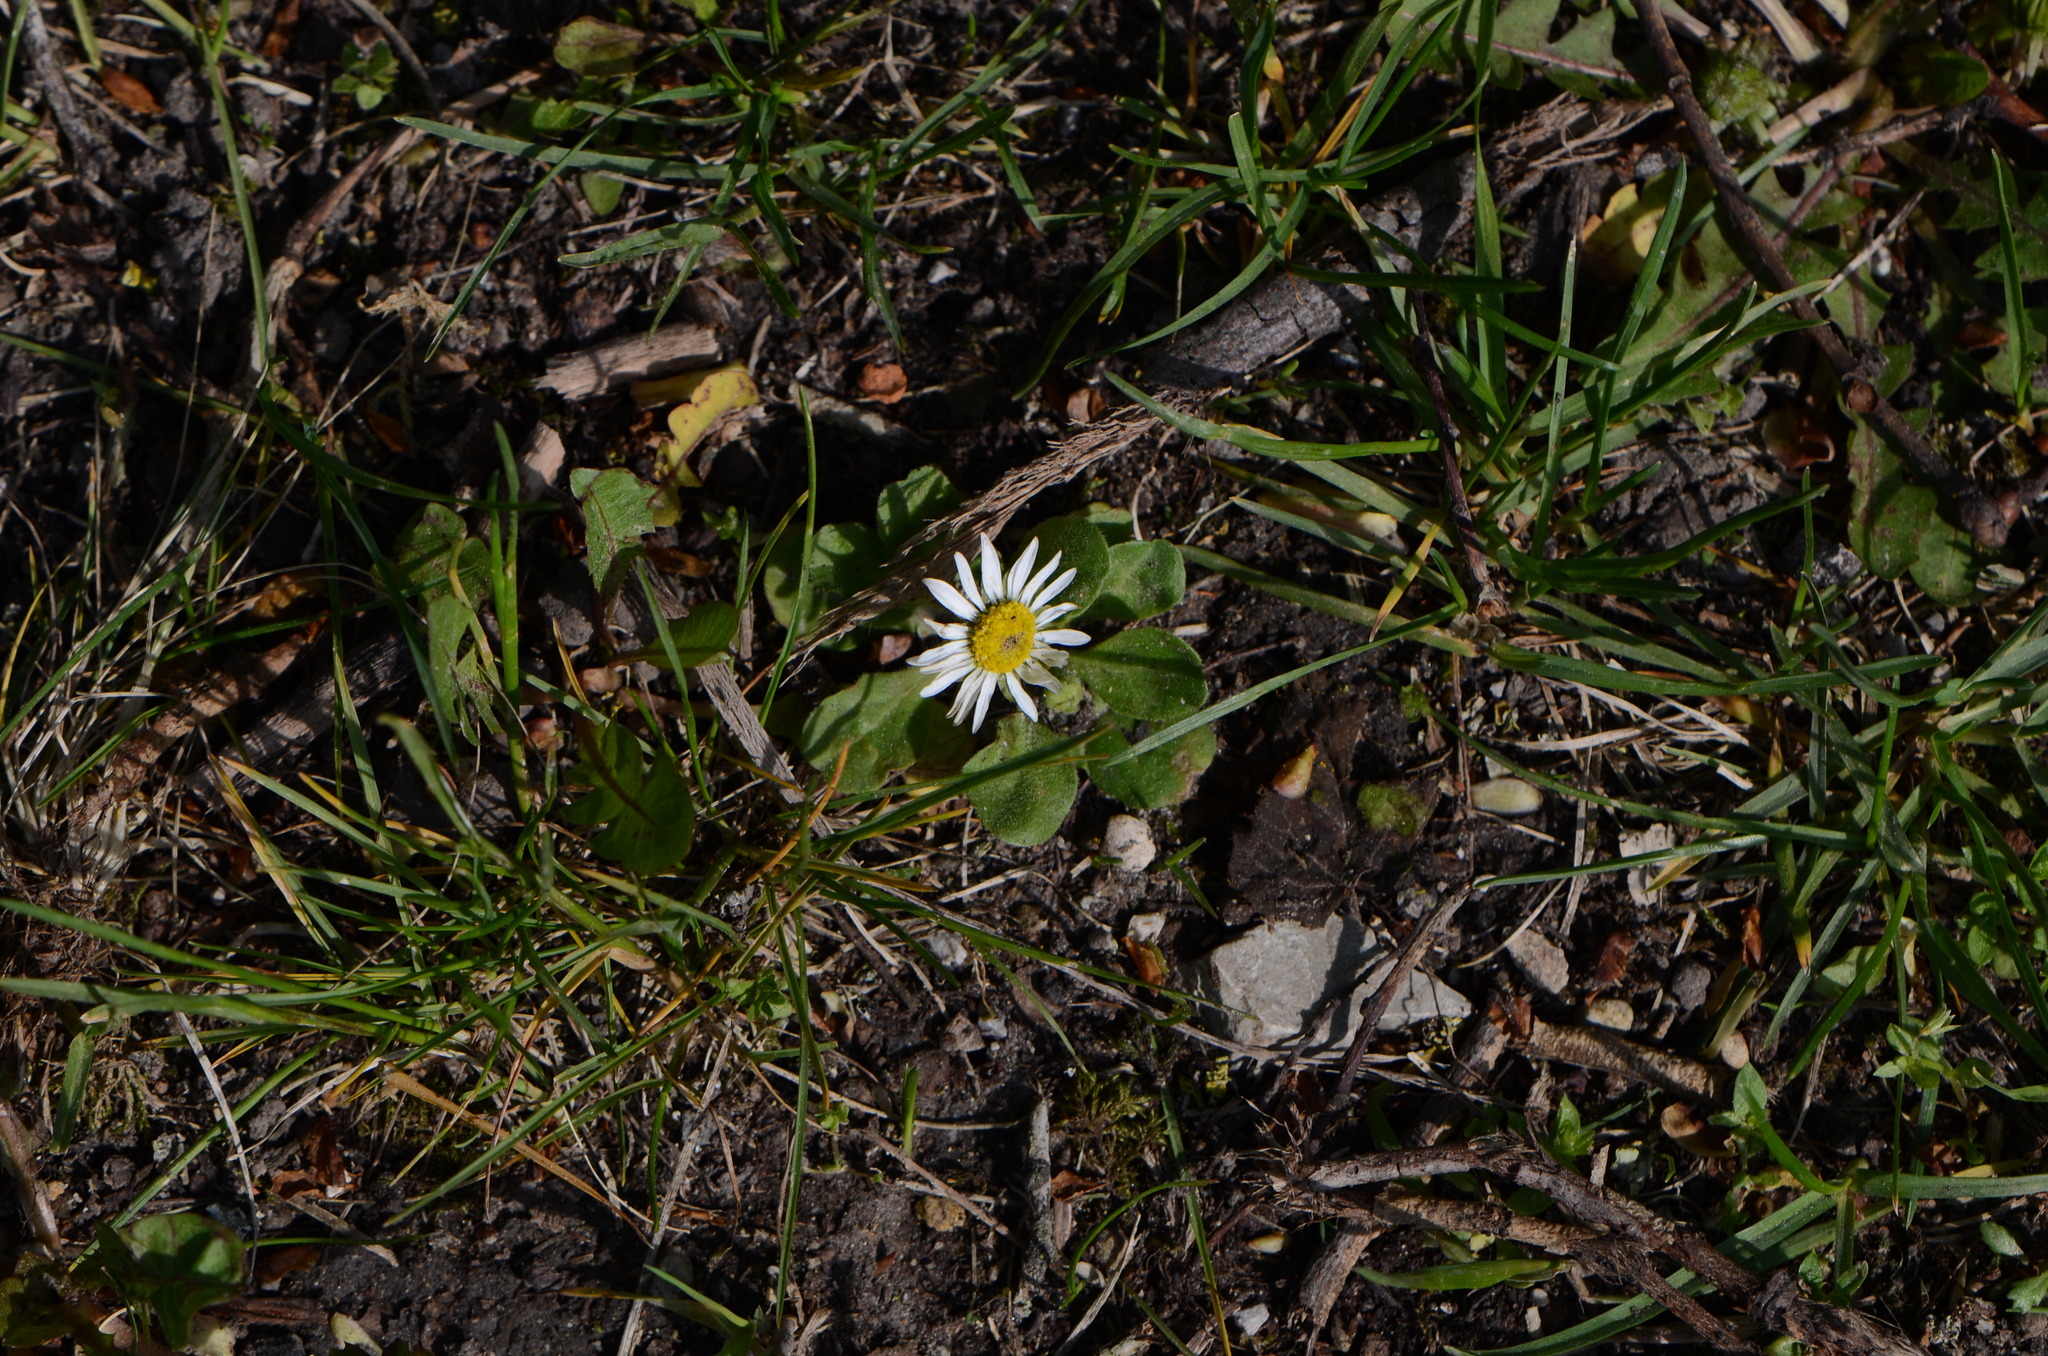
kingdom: Plantae
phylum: Tracheophyta
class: Magnoliopsida
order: Asterales
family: Asteraceae
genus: Bellis
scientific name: Bellis perennis
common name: Lawndaisy
